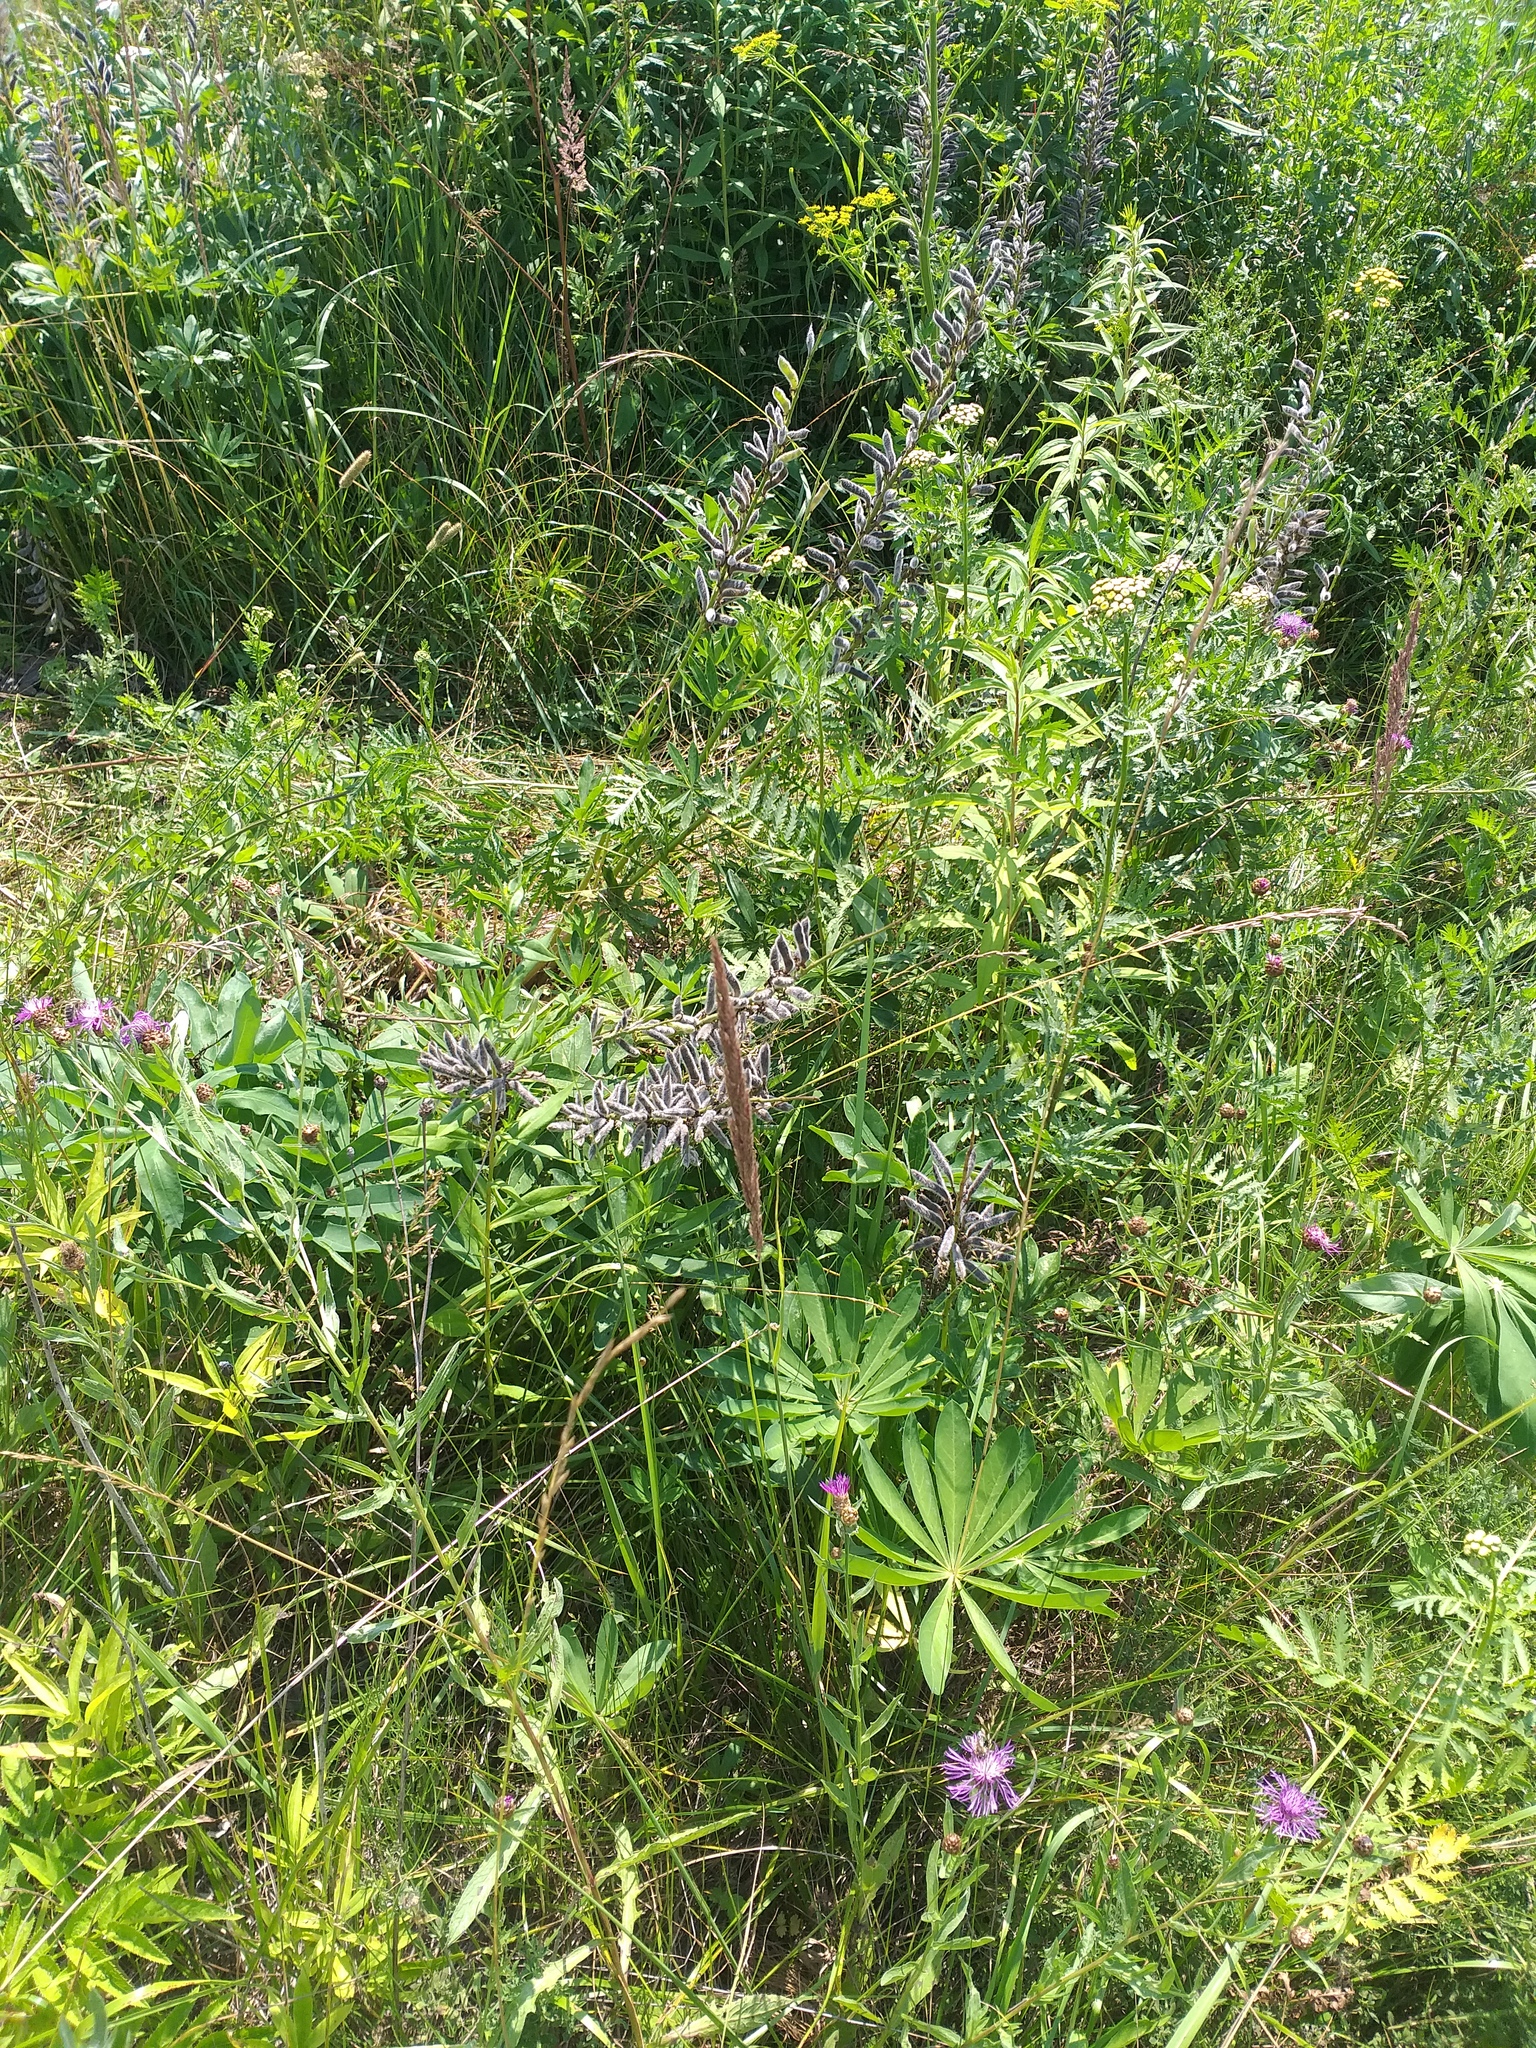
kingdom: Plantae
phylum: Tracheophyta
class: Magnoliopsida
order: Fabales
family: Fabaceae
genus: Lupinus
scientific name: Lupinus polyphyllus
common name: Garden lupin
